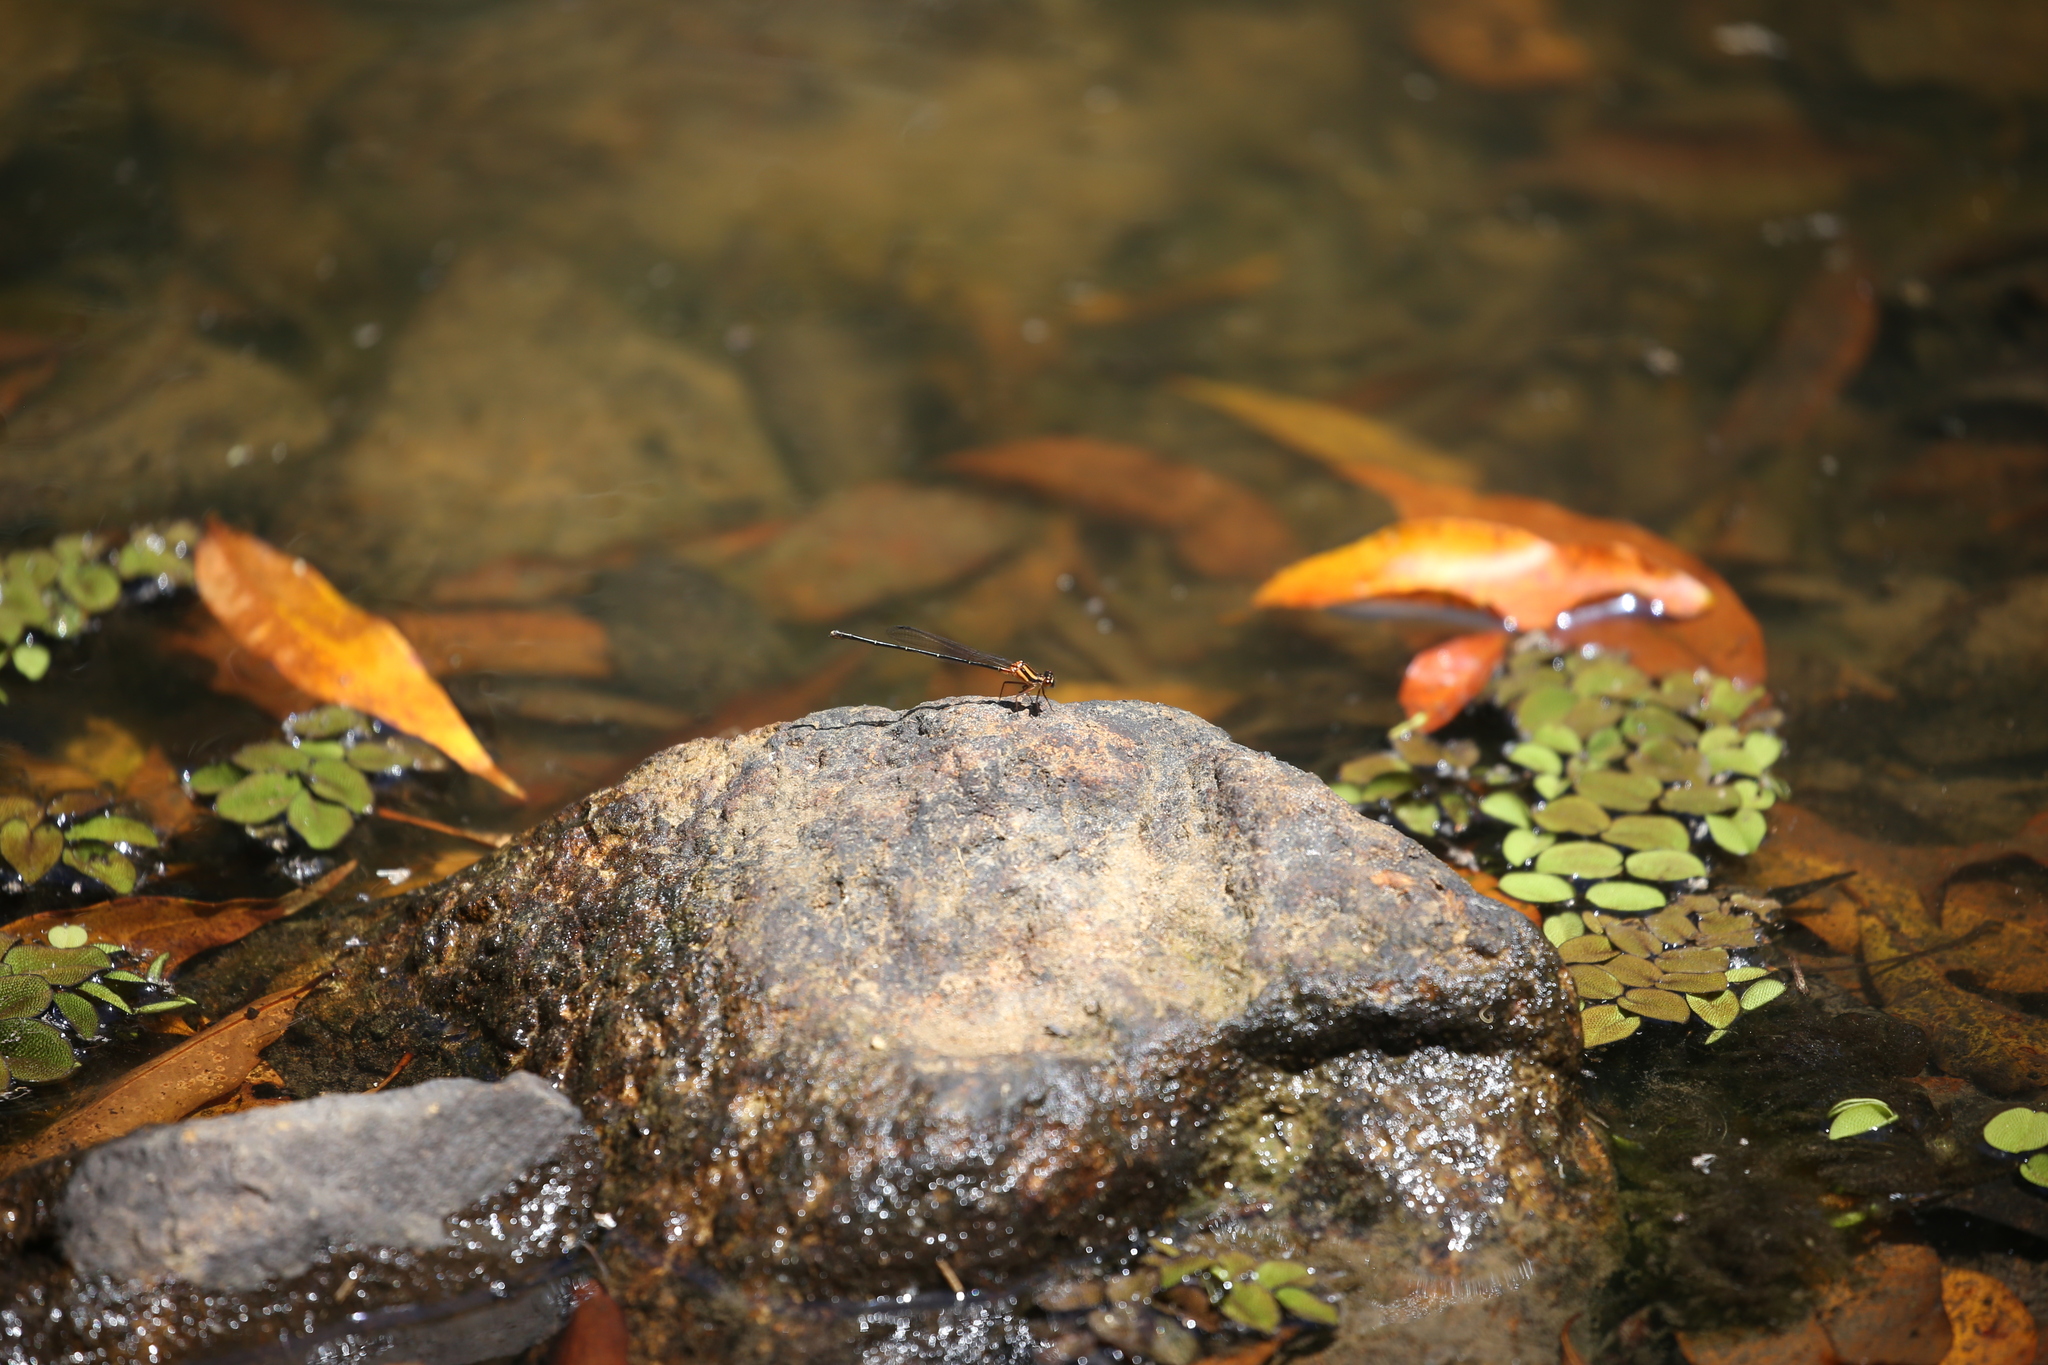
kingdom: Animalia
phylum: Arthropoda
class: Insecta
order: Odonata
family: Platycnemididae
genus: Nososticta
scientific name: Nososticta solida
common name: Orange threadtail
